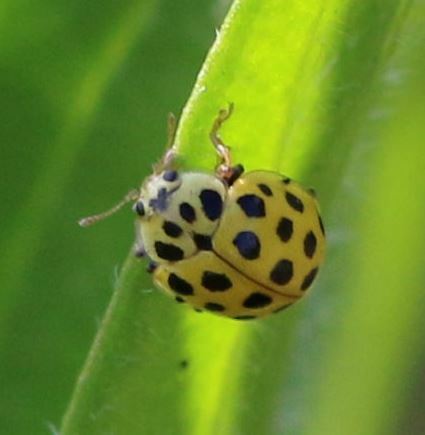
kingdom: Animalia
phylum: Arthropoda
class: Insecta
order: Coleoptera
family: Coccinellidae
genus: Psyllobora
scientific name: Psyllobora vigintiduopunctata
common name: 22-spot ladybird
